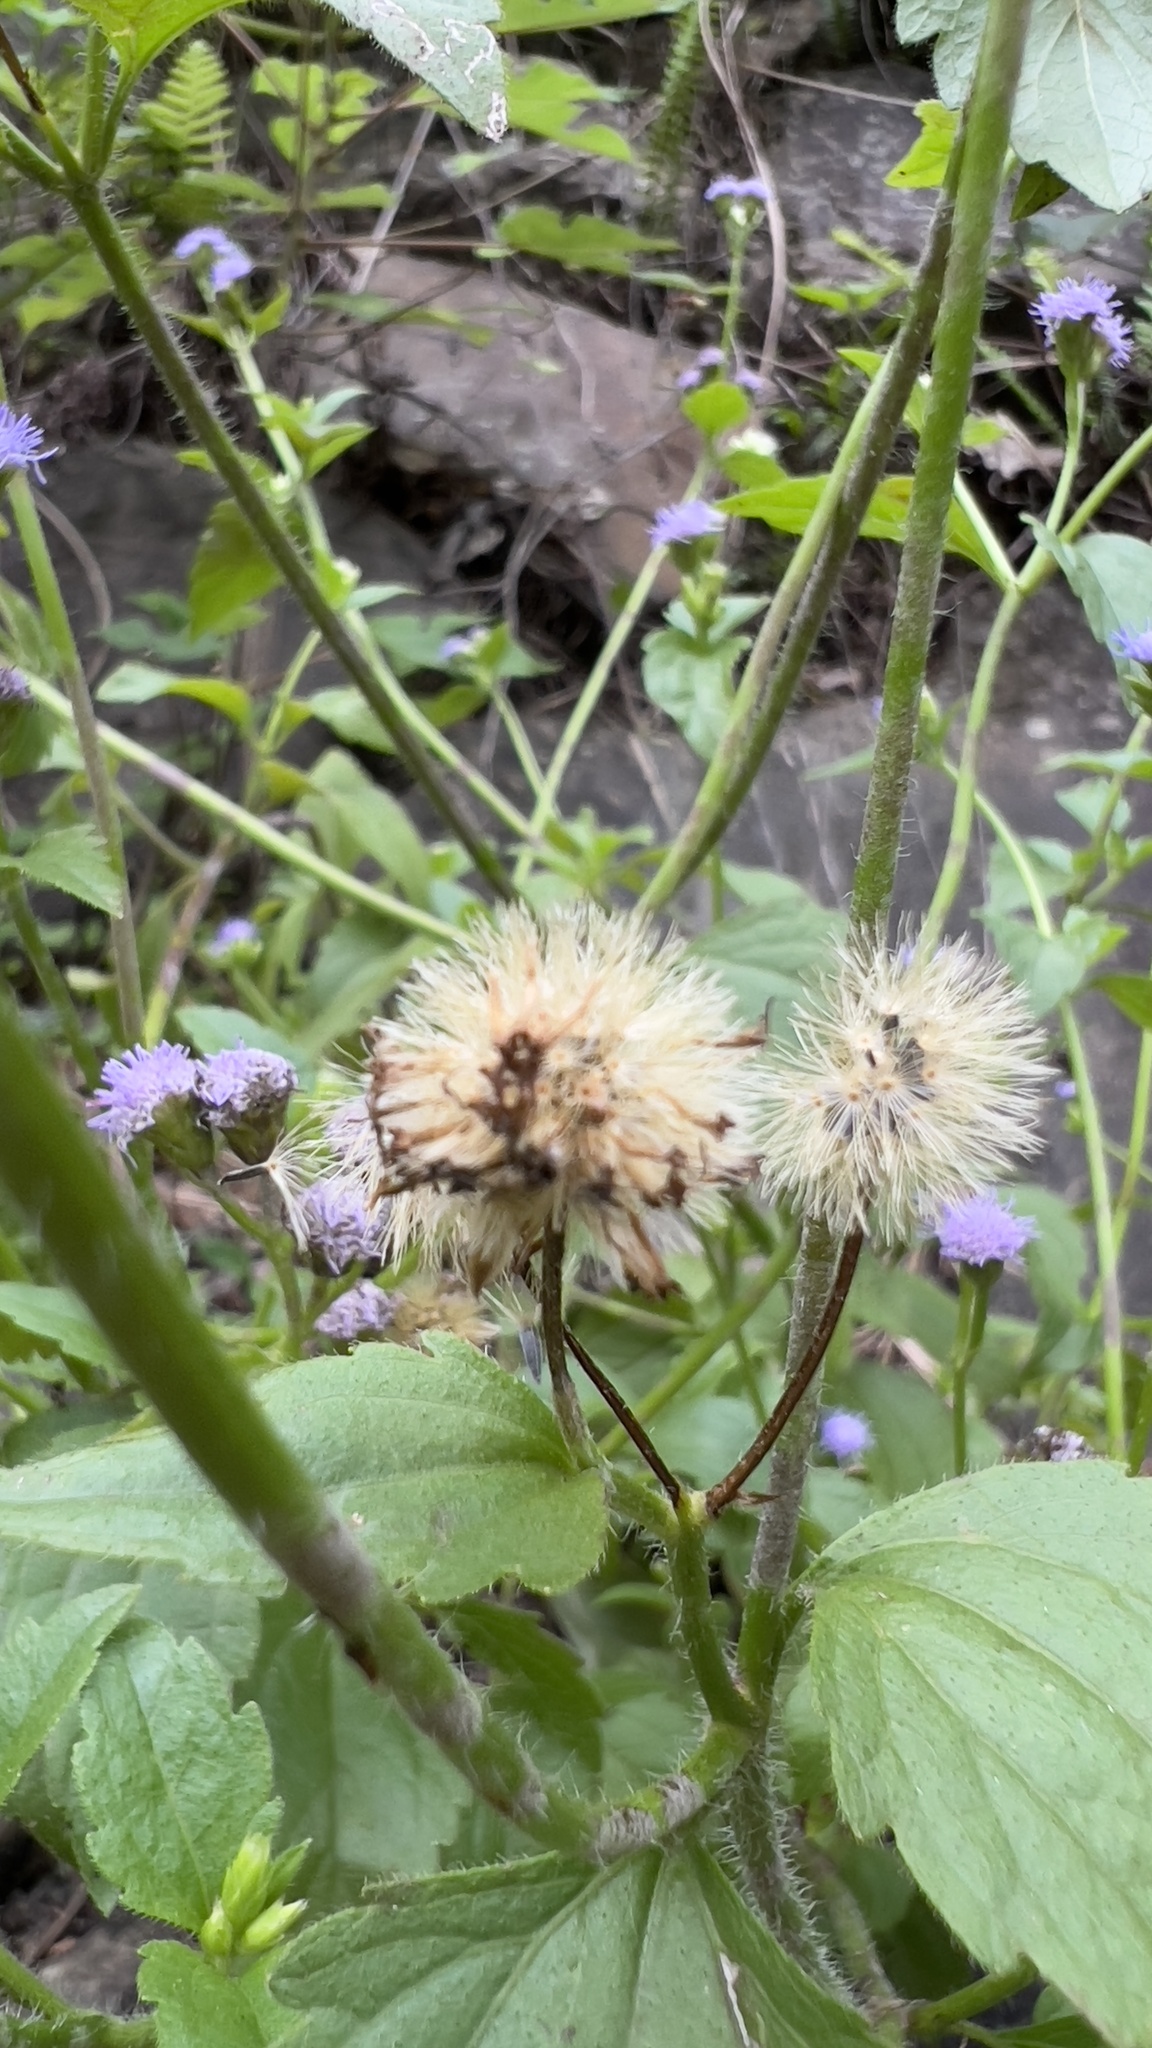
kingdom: Plantae
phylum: Tracheophyta
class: Magnoliopsida
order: Asterales
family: Asteraceae
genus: Praxelis
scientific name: Praxelis clematidea
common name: Praxelis
